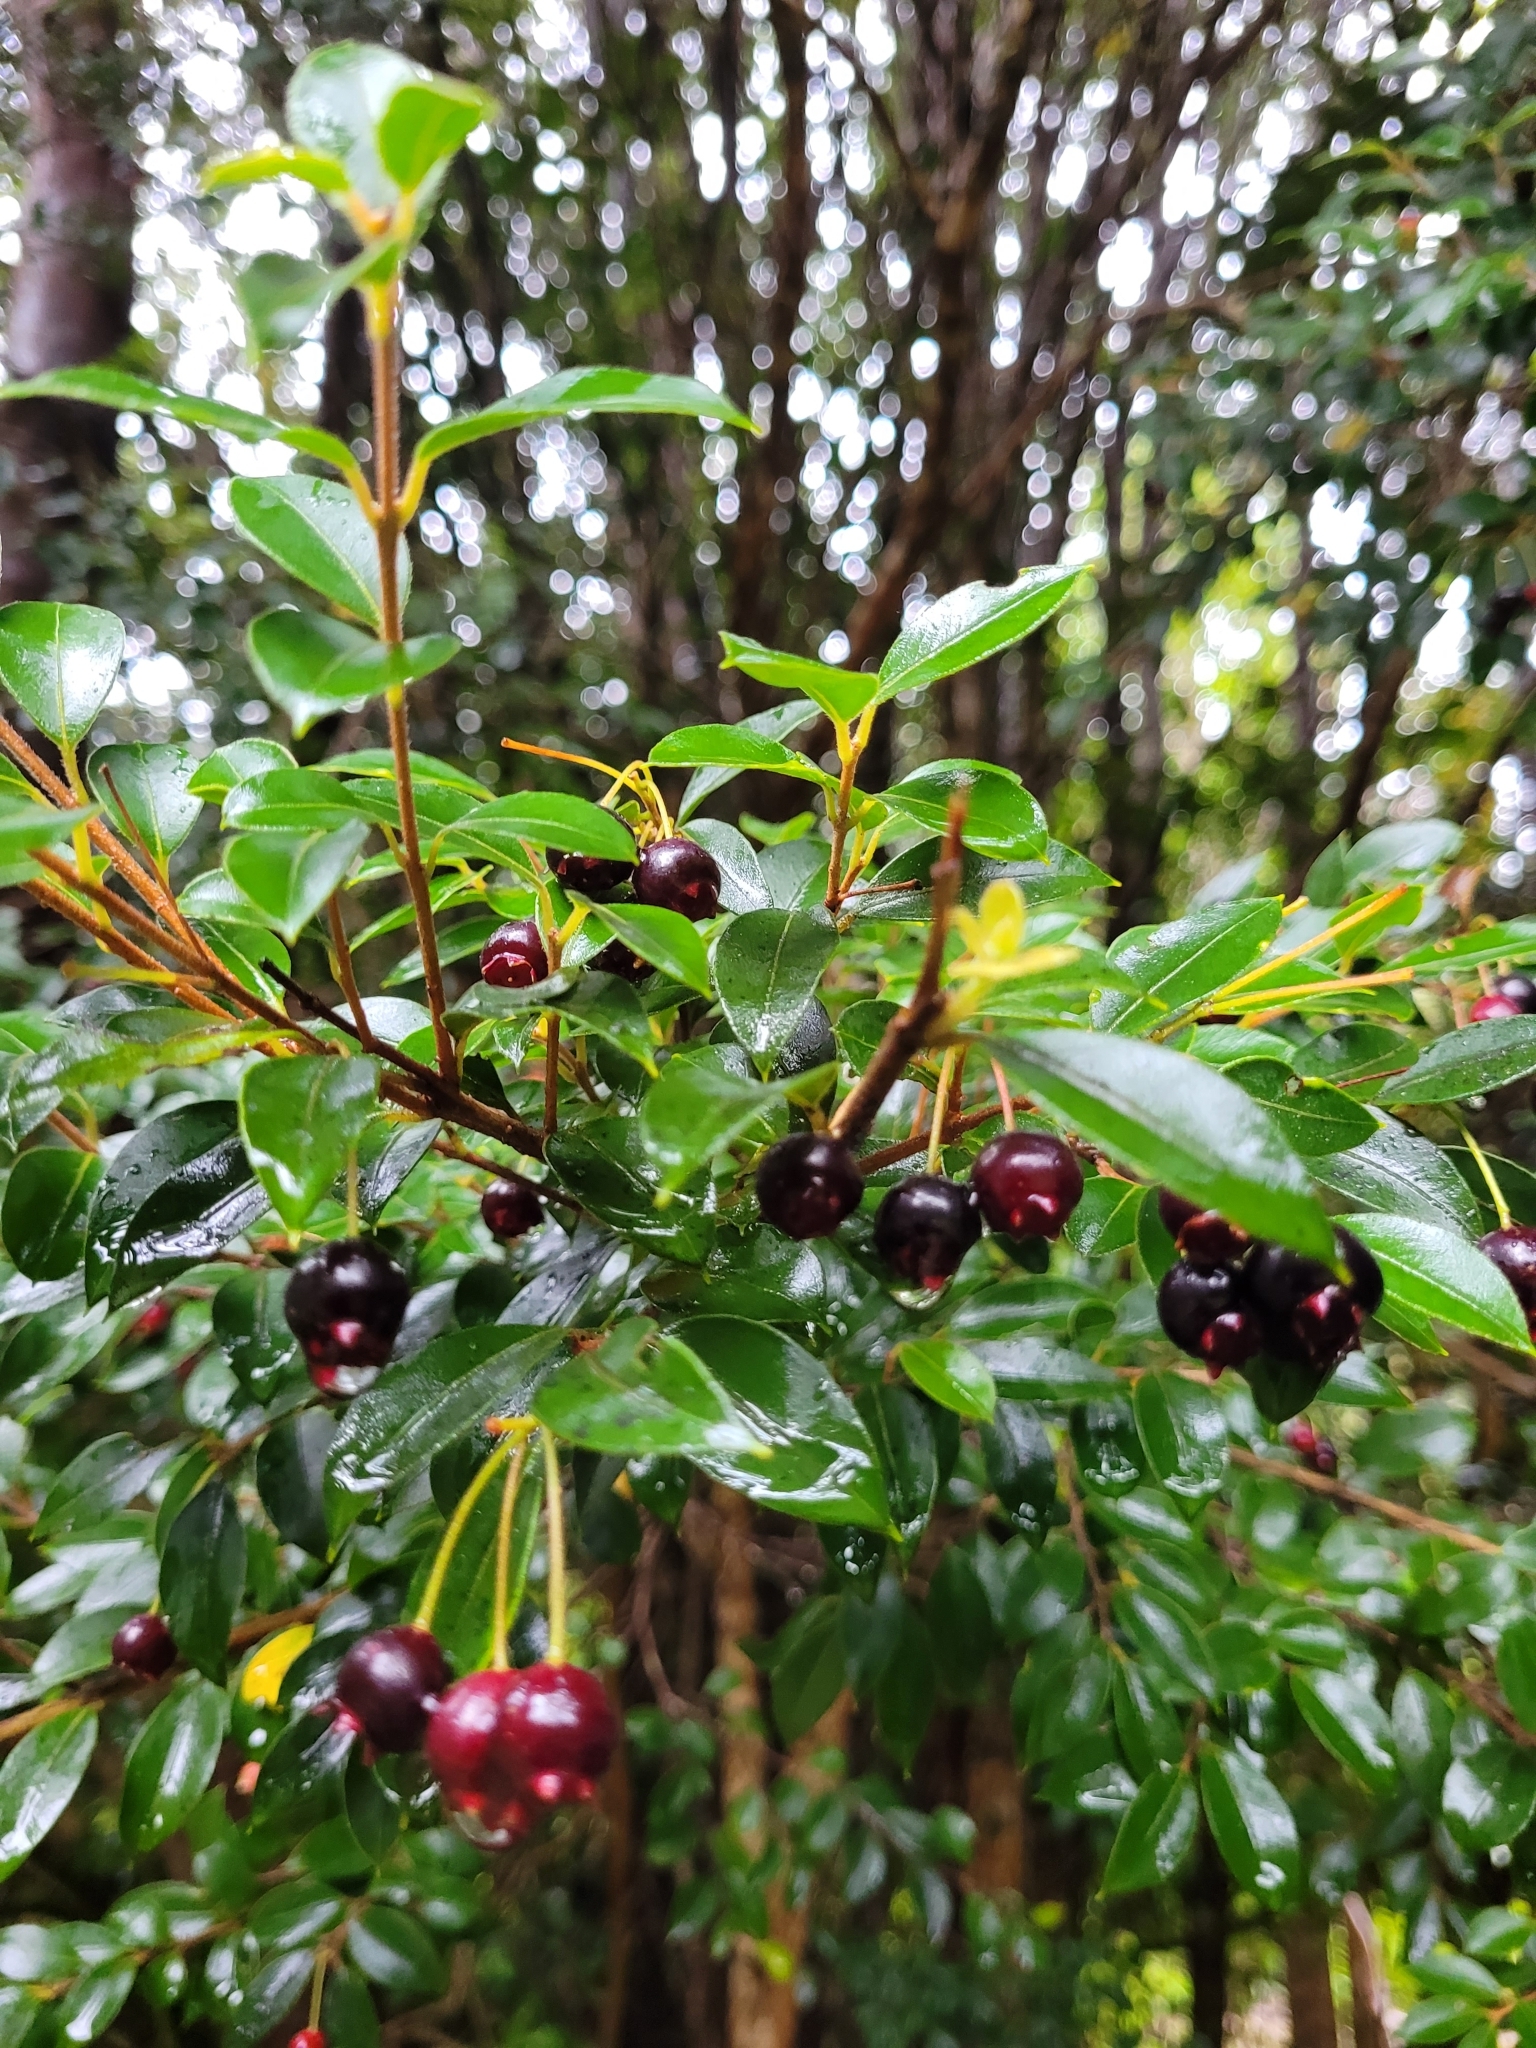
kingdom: Plantae
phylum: Tracheophyta
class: Magnoliopsida
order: Myrtales
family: Myrtaceae
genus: Amomyrtus
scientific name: Amomyrtus luma
